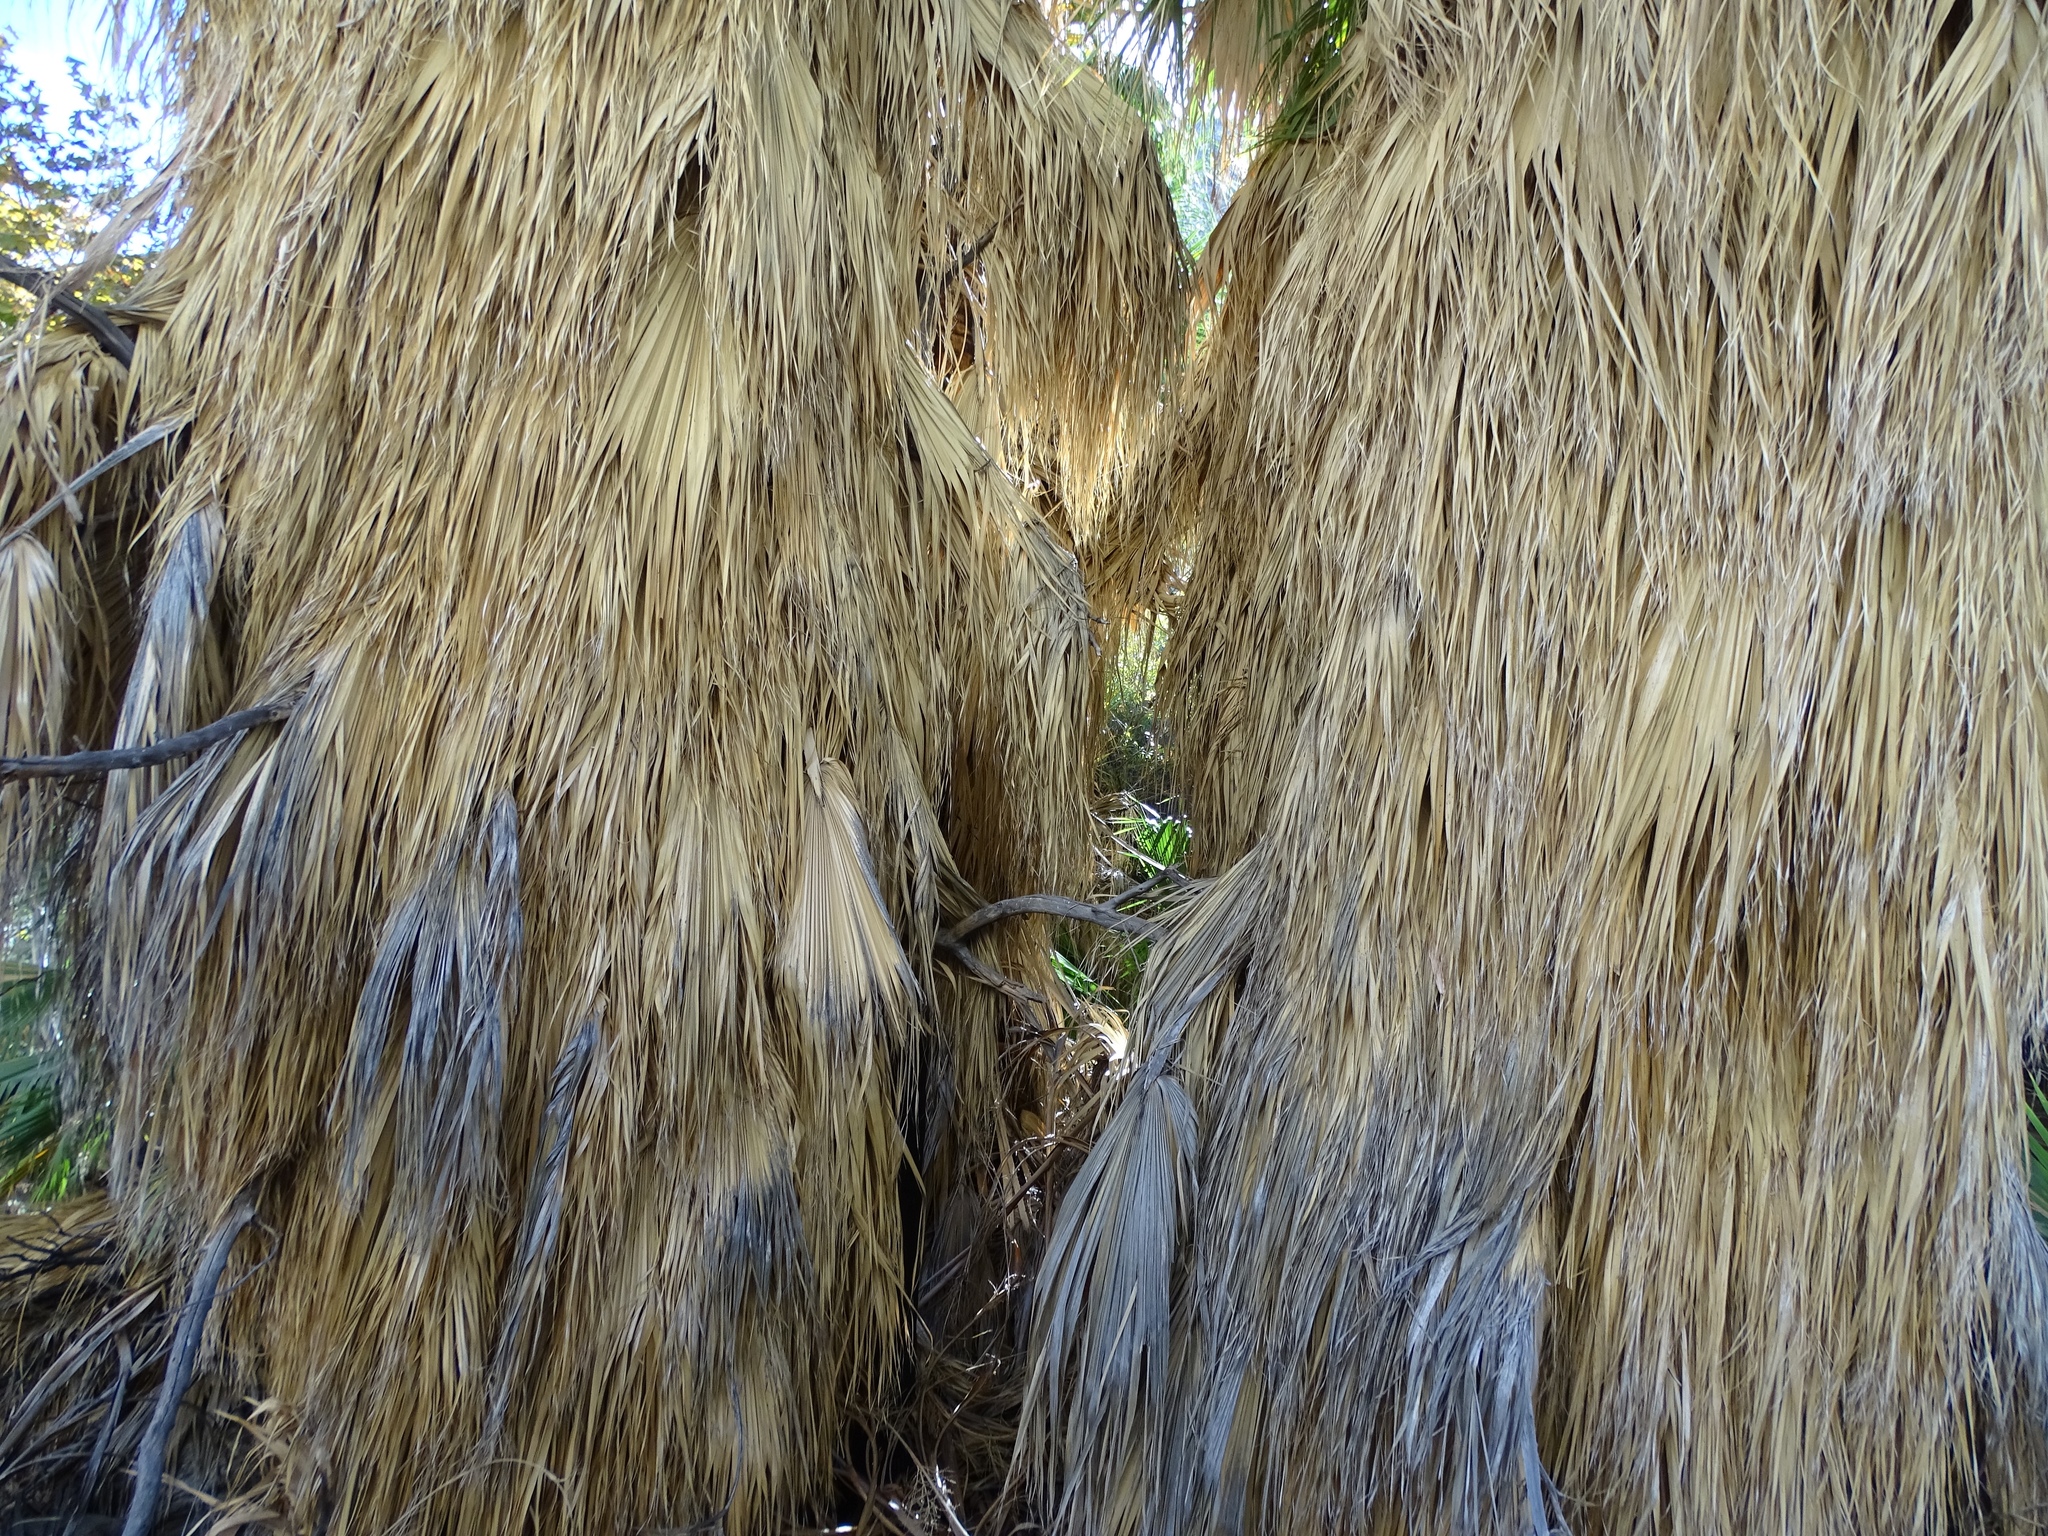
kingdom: Plantae
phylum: Tracheophyta
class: Liliopsida
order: Arecales
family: Arecaceae
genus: Washingtonia
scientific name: Washingtonia filifera
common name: California fan palm
